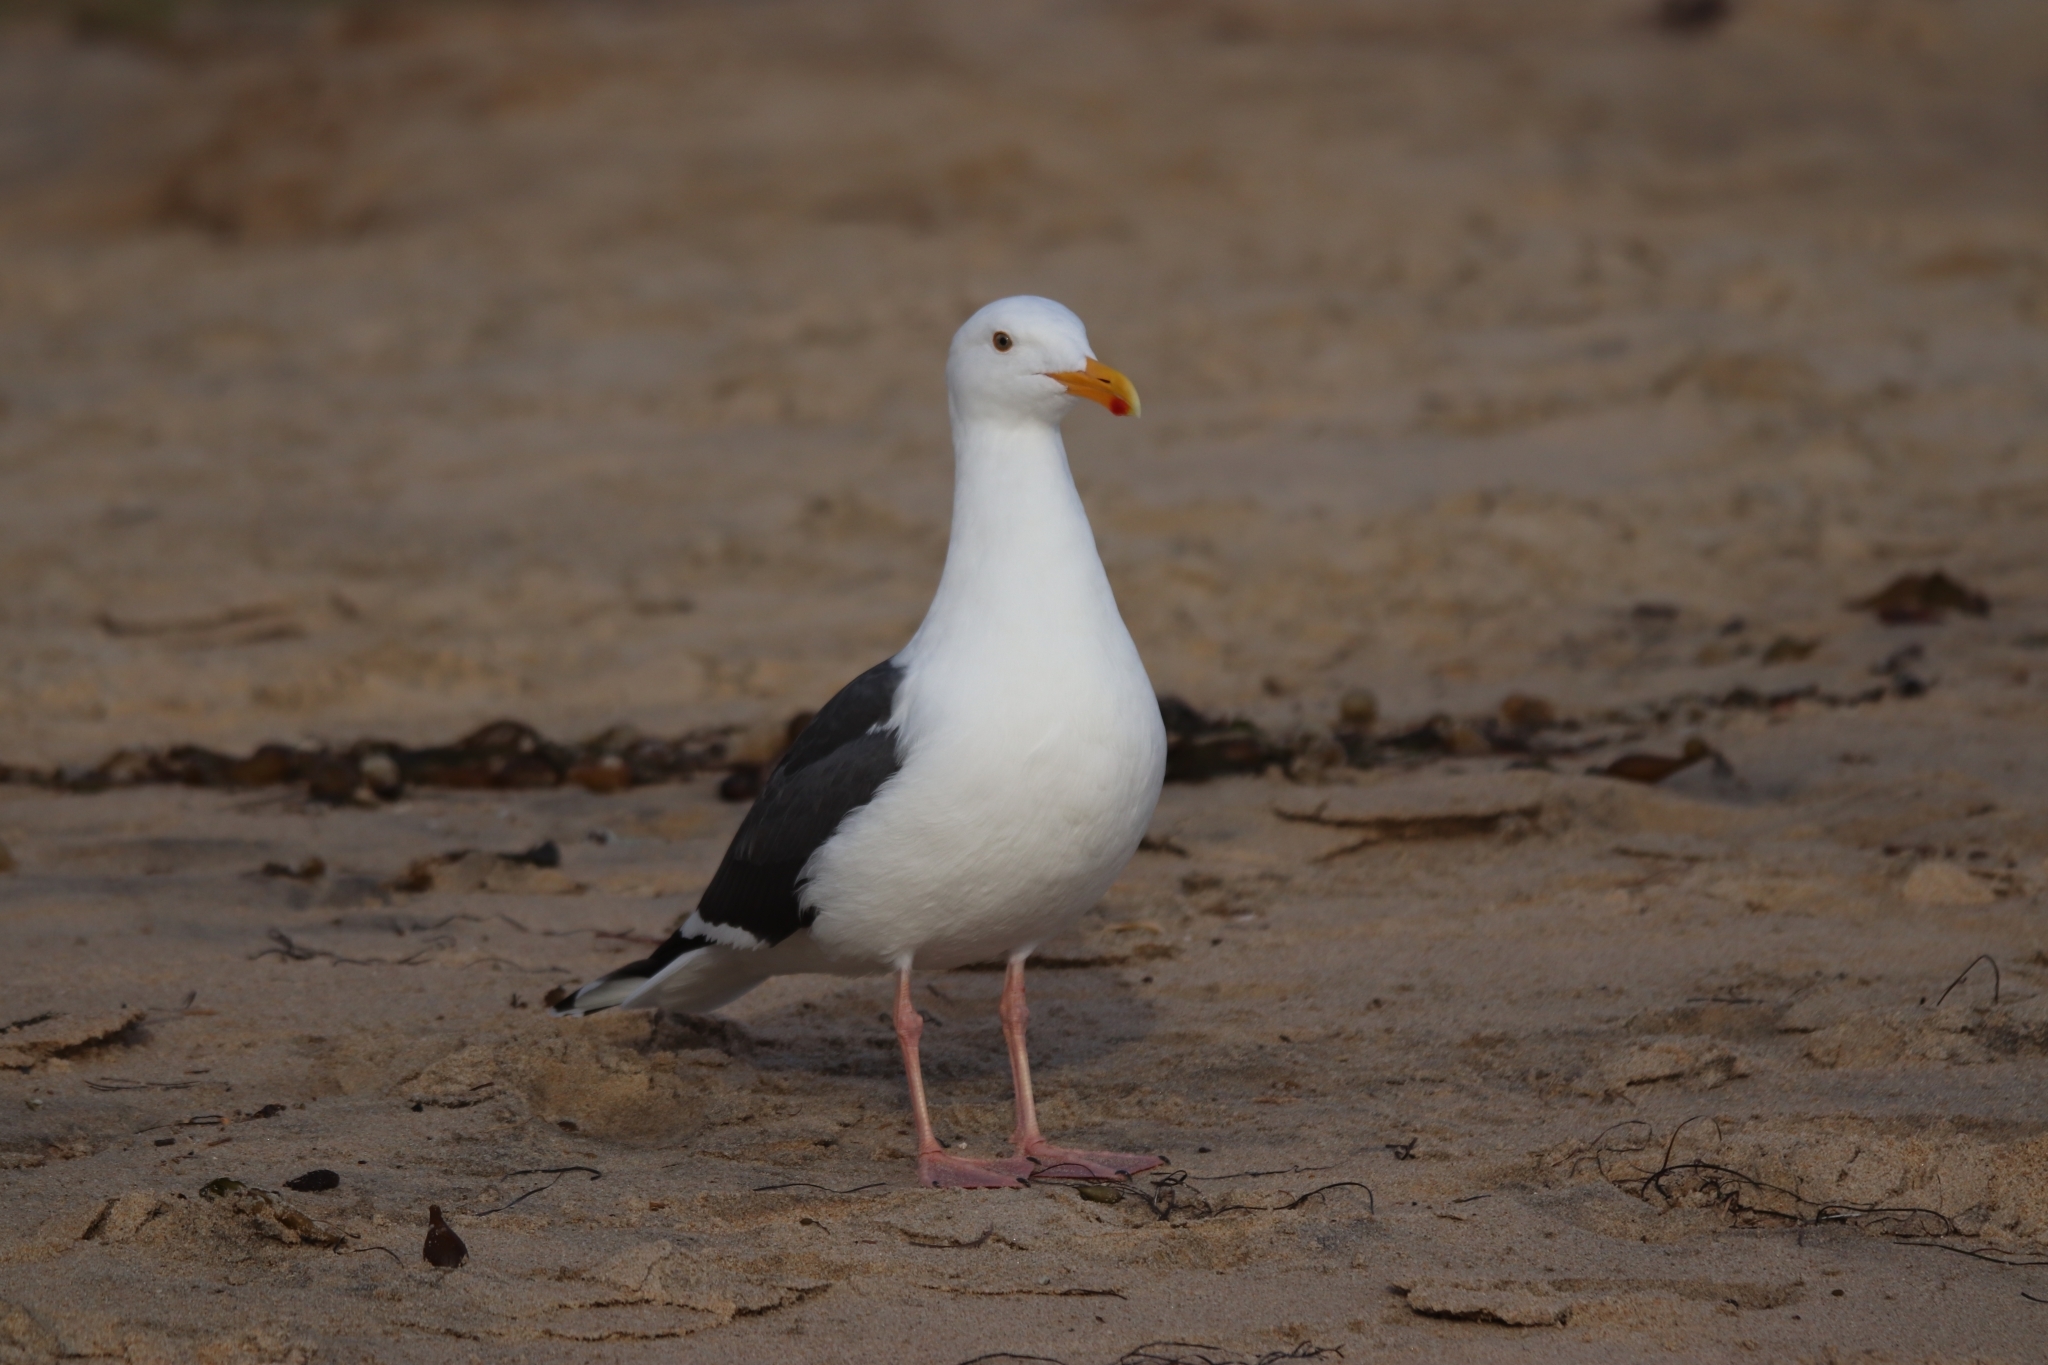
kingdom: Animalia
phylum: Chordata
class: Aves
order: Charadriiformes
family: Laridae
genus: Larus
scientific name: Larus occidentalis
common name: Western gull
